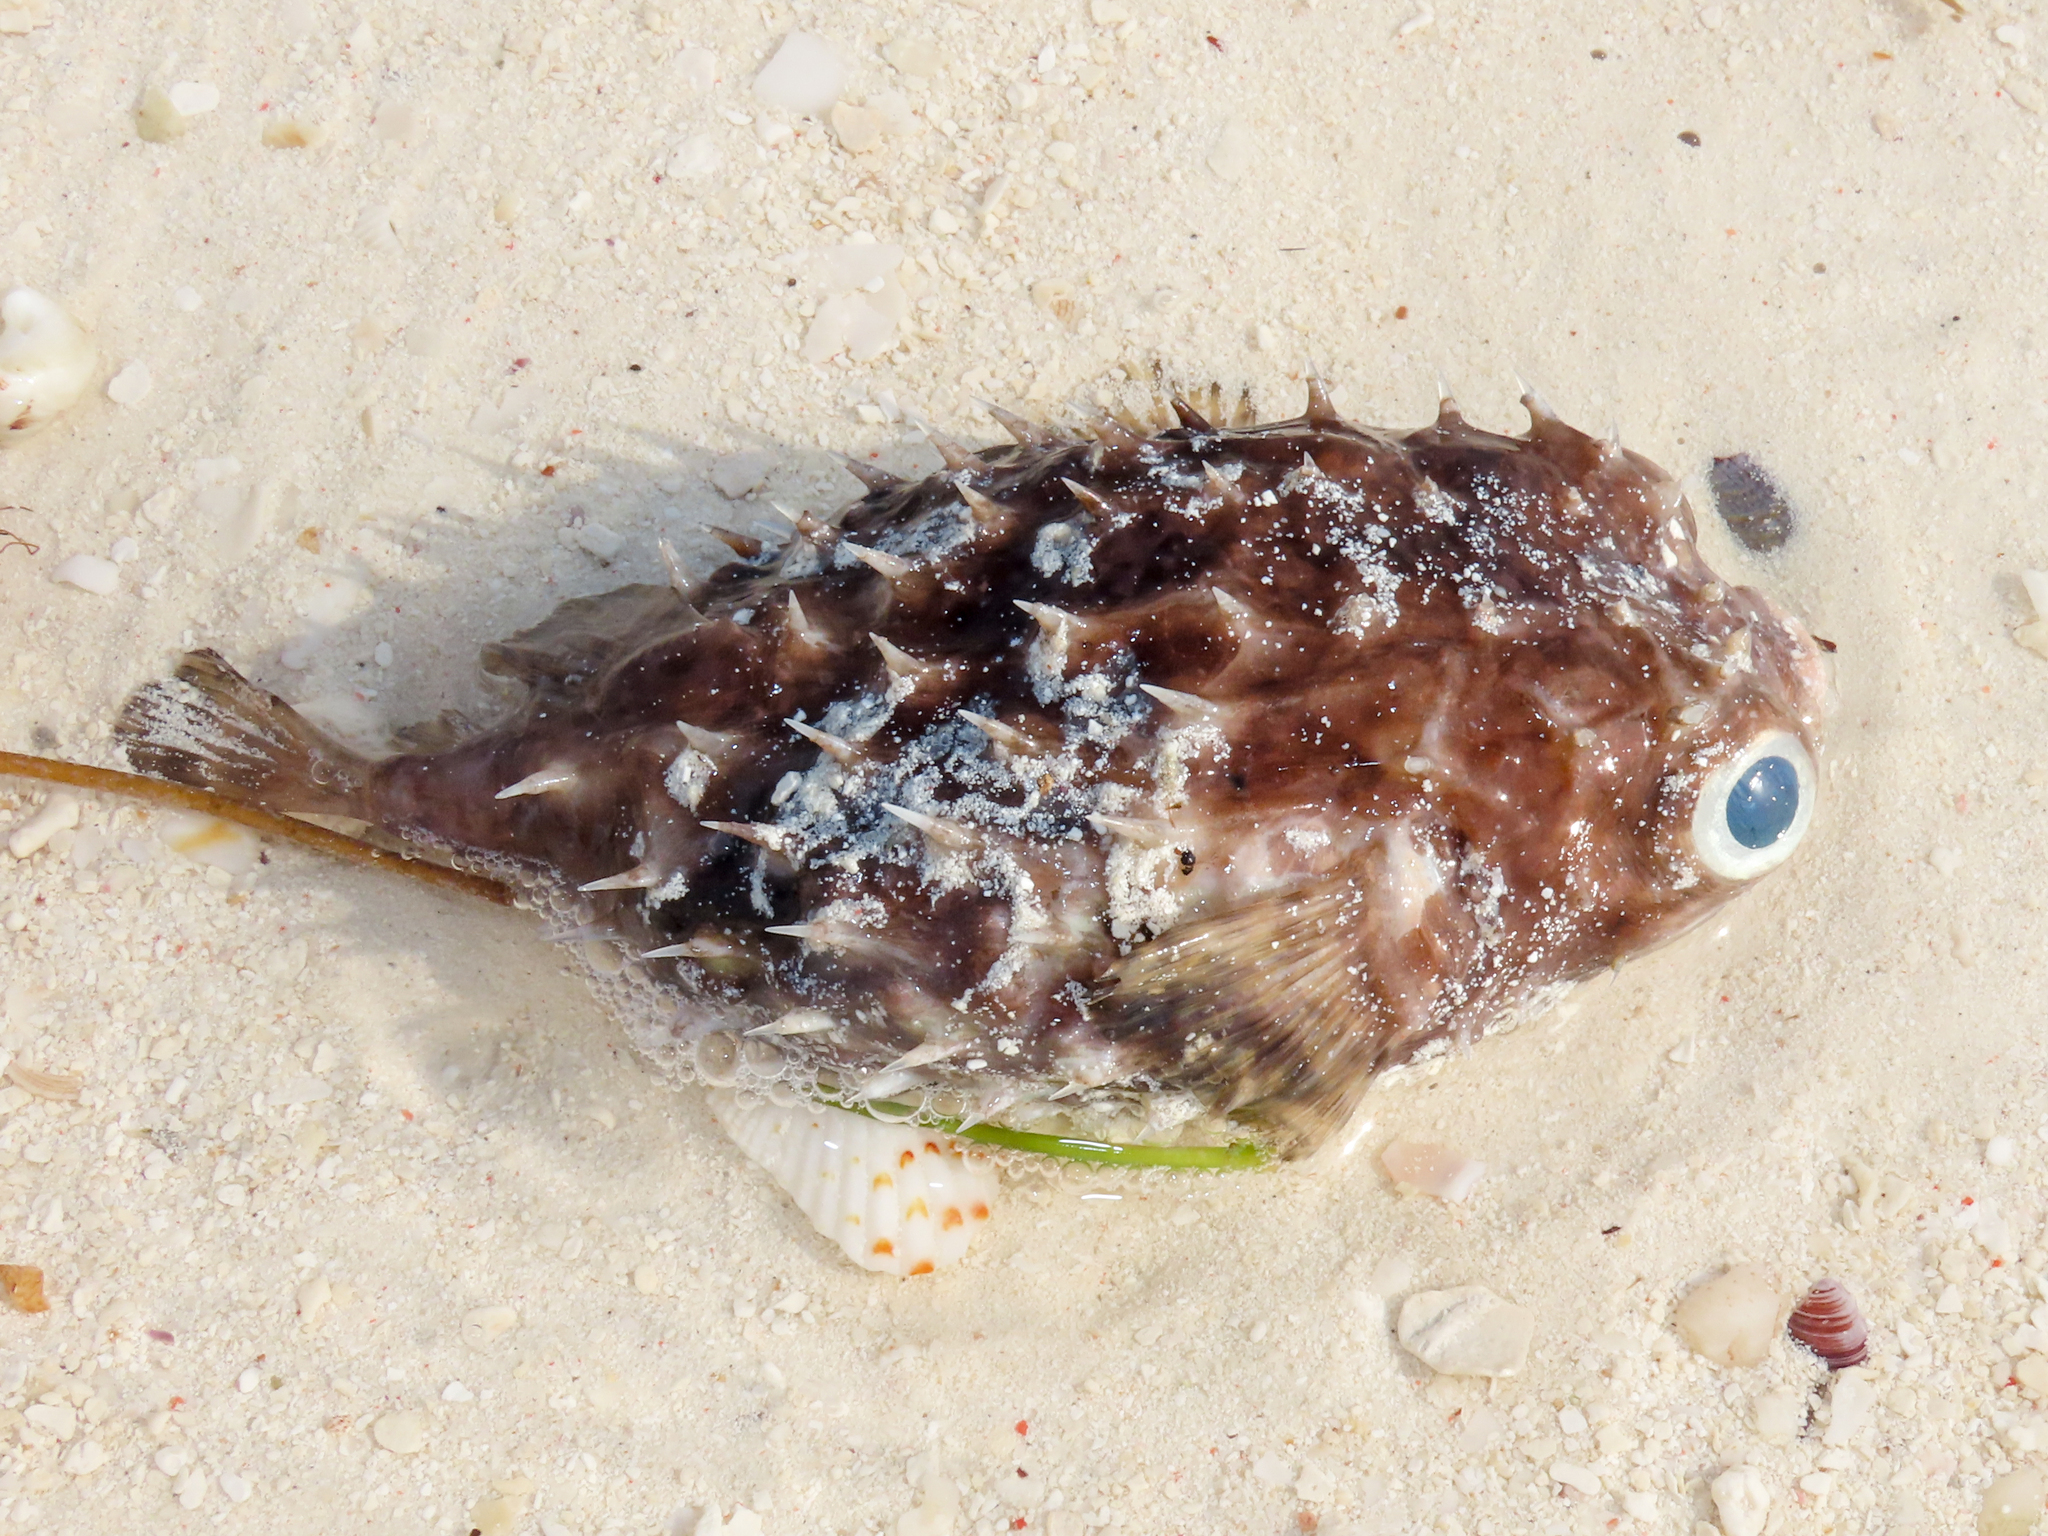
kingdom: Animalia
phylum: Chordata
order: Tetraodontiformes
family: Diodontidae
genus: Cyclichthys
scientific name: Cyclichthys orbicularis
